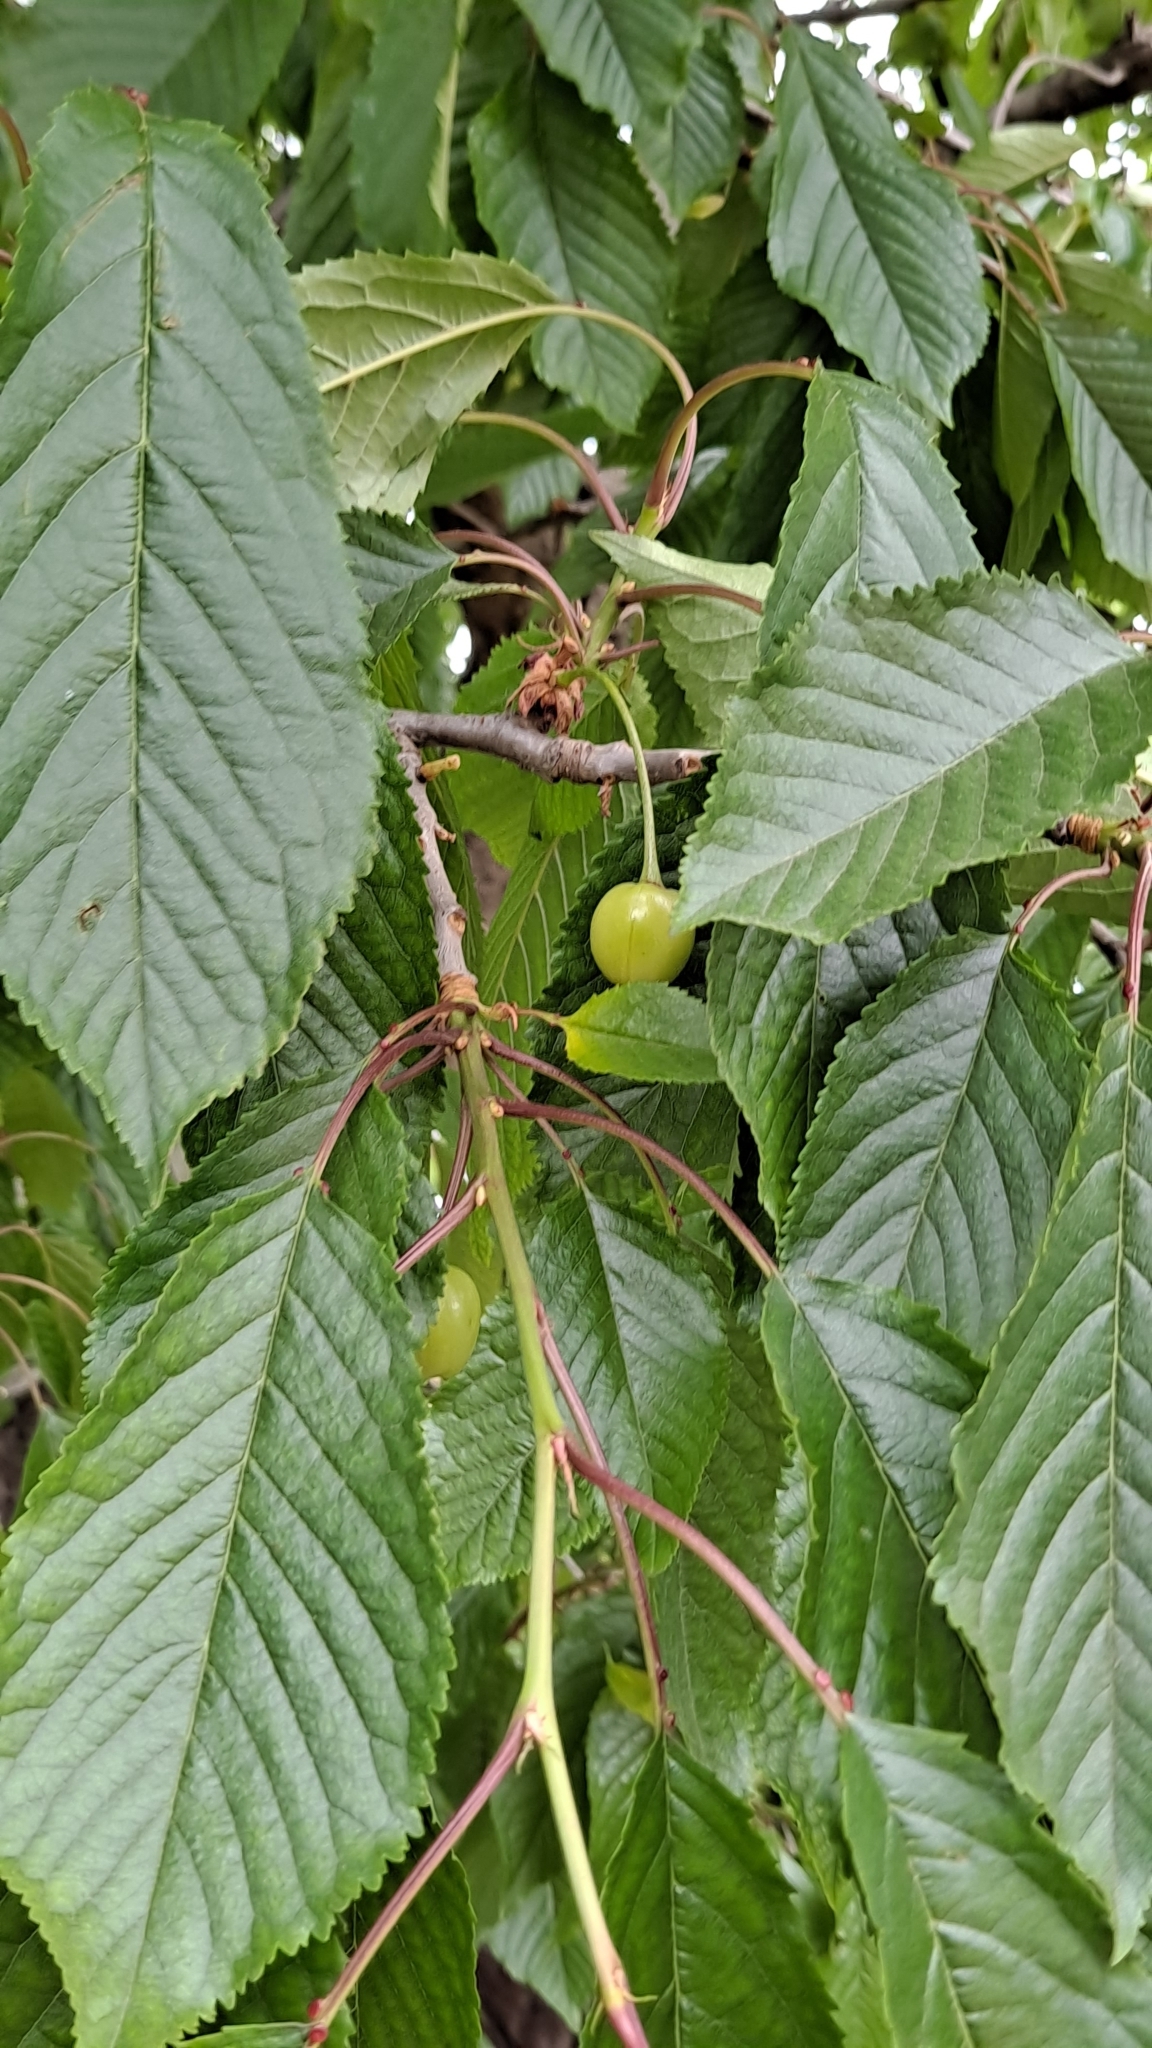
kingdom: Plantae
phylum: Tracheophyta
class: Magnoliopsida
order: Rosales
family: Rosaceae
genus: Prunus
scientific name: Prunus avium
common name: Sweet cherry
